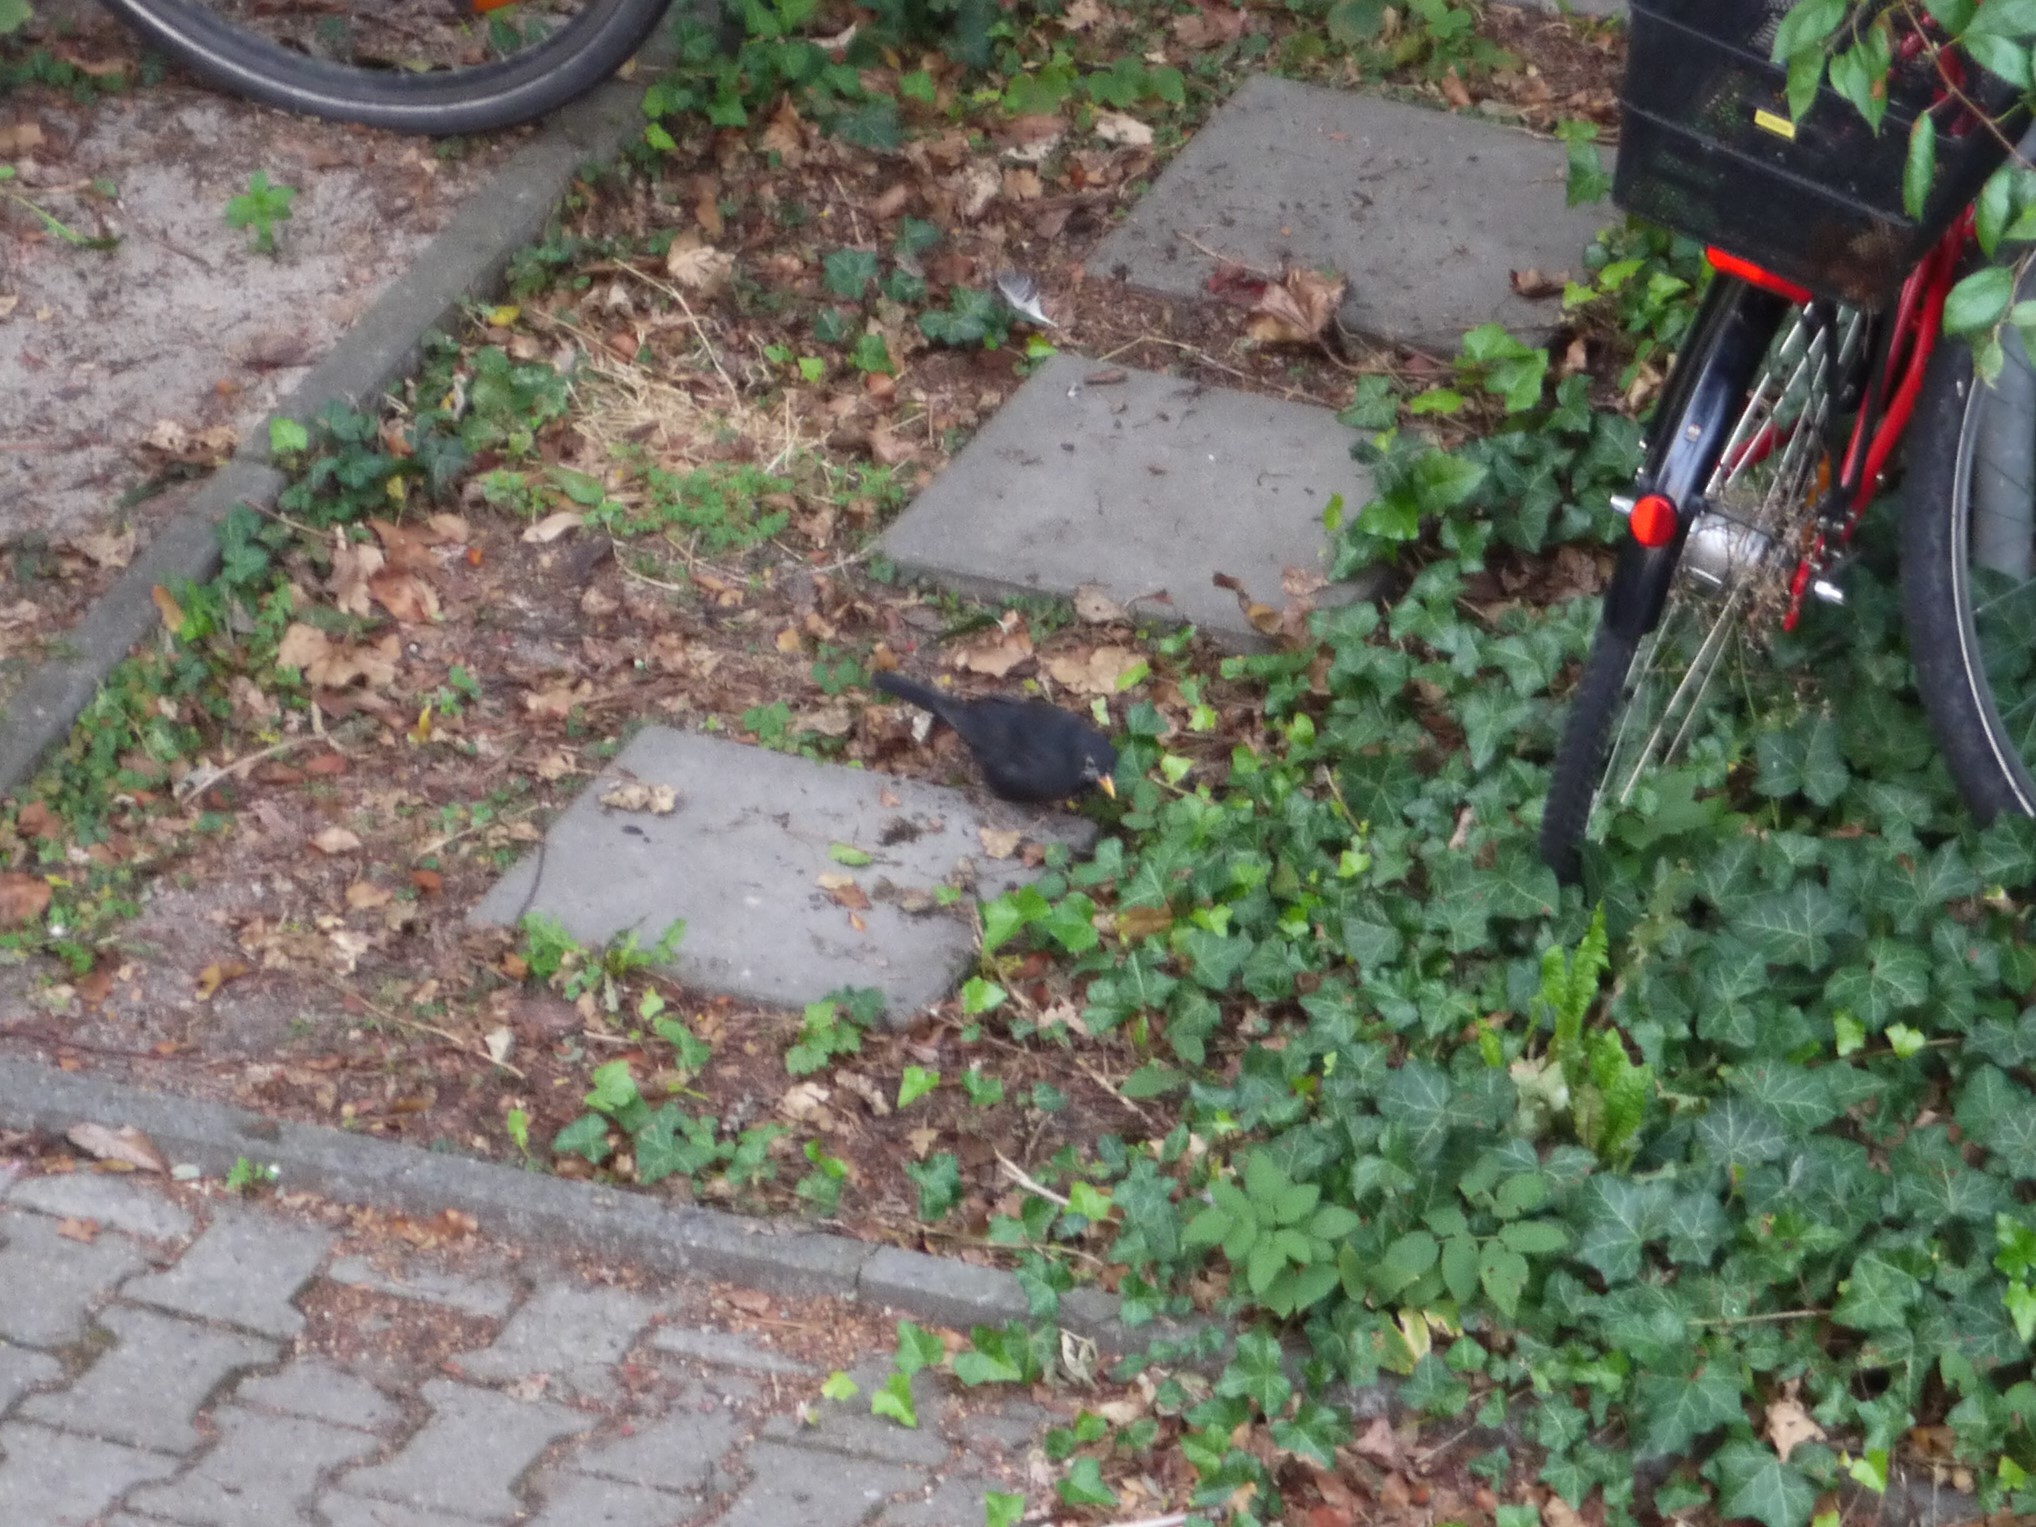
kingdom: Animalia
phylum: Chordata
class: Aves
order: Passeriformes
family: Turdidae
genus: Turdus
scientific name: Turdus merula
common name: Common blackbird
